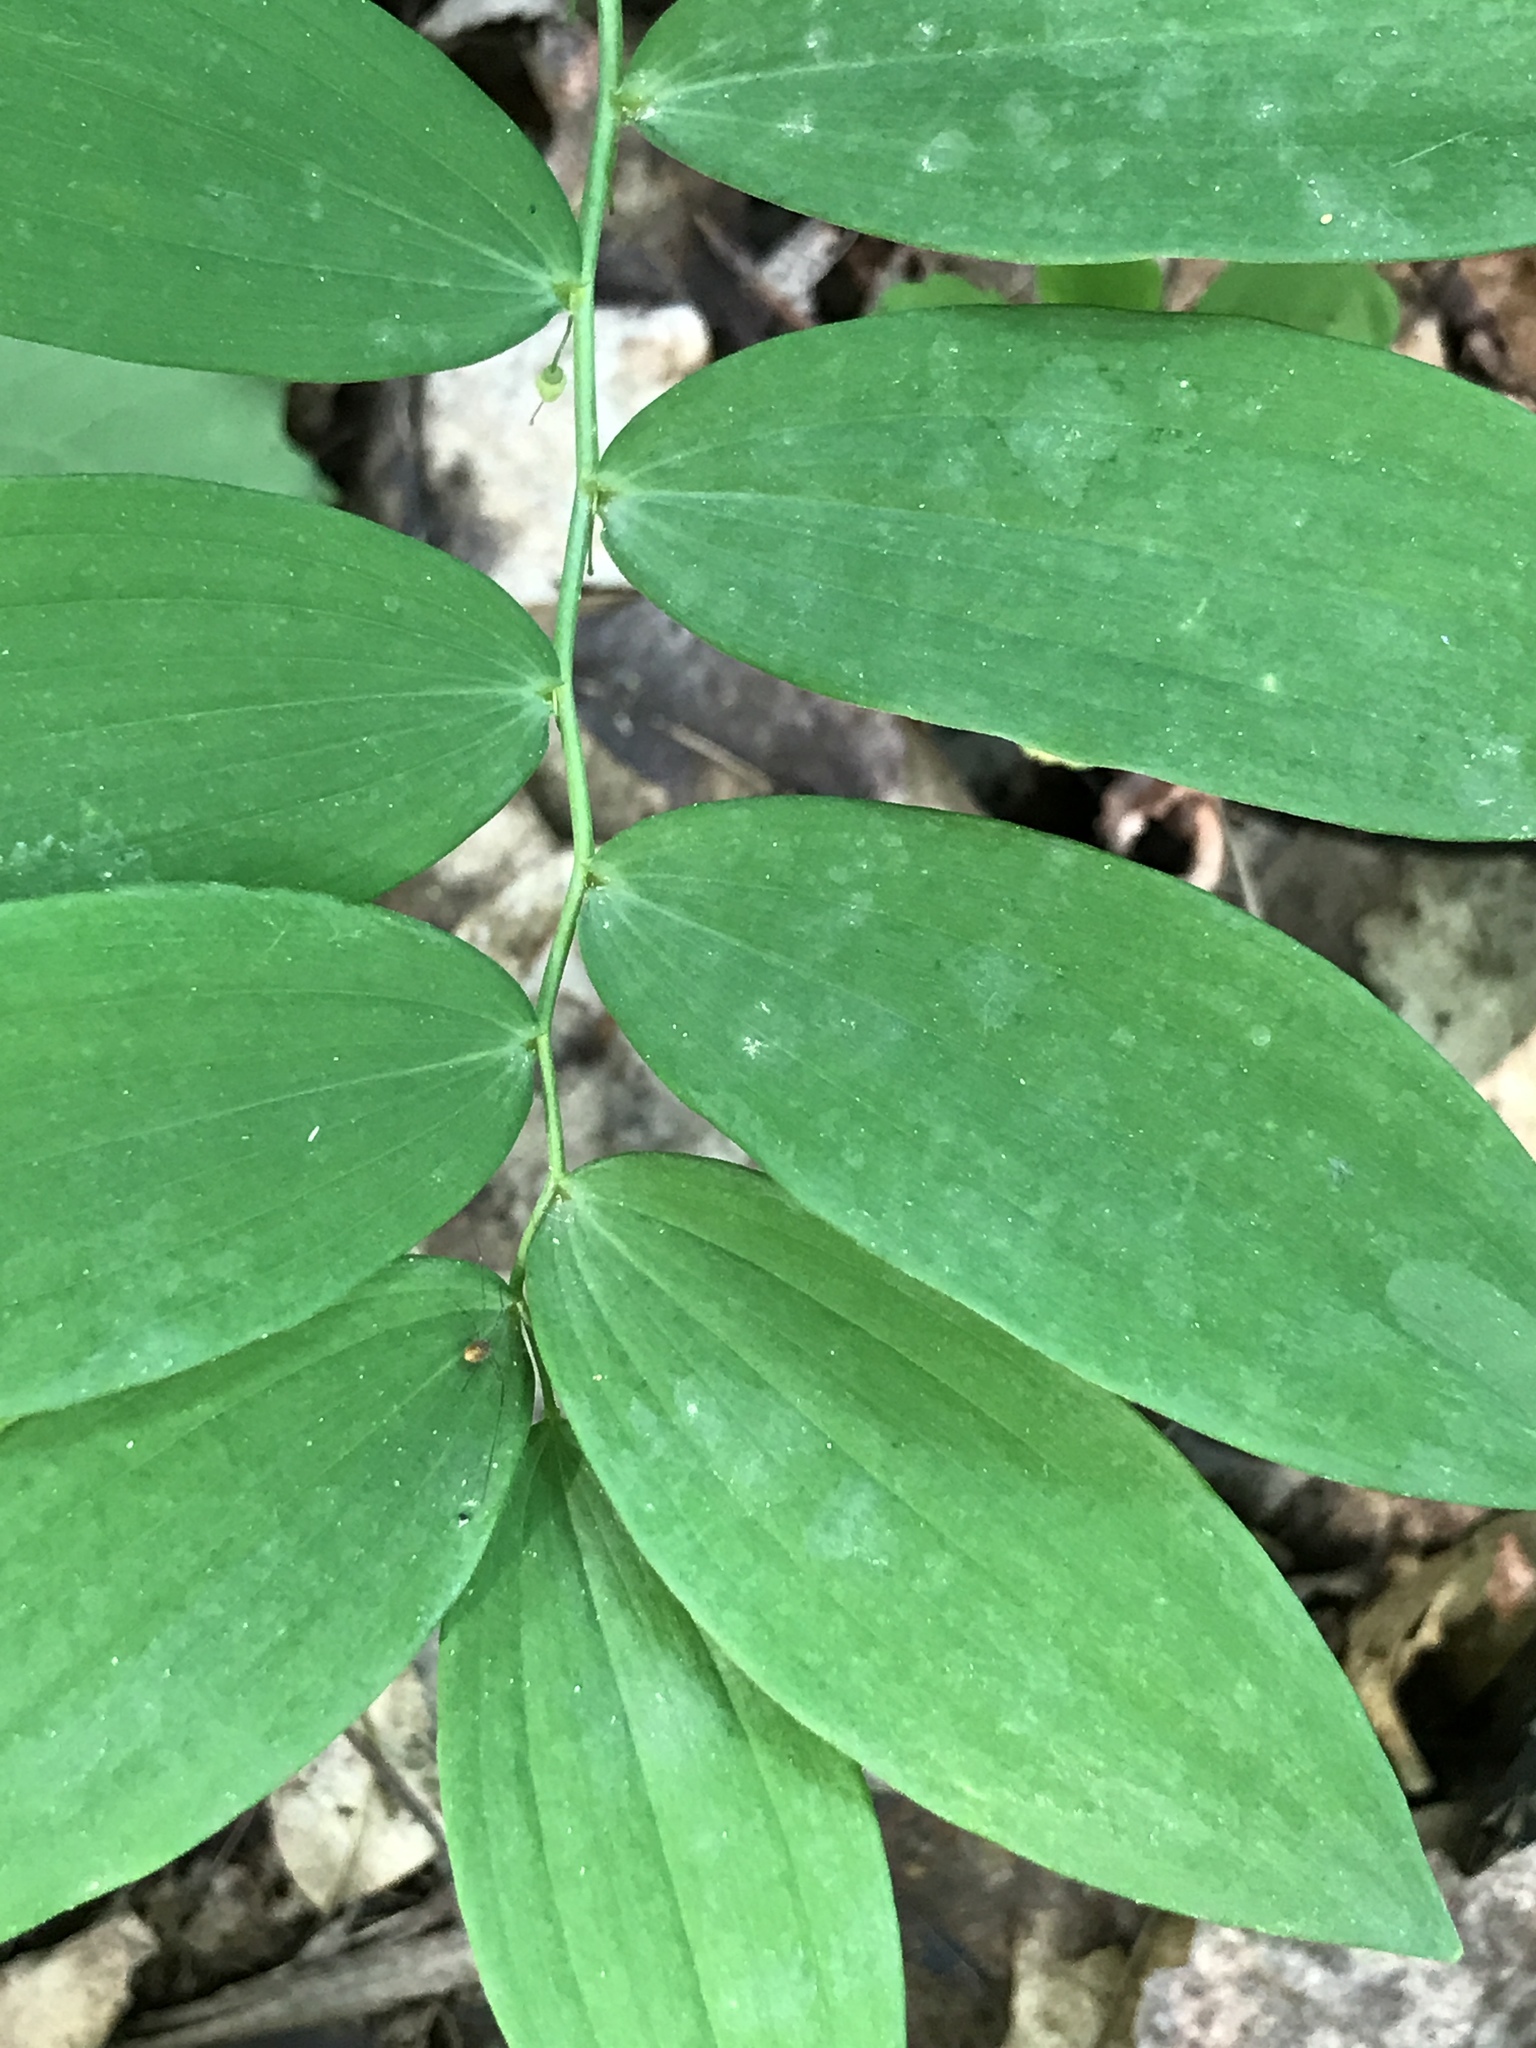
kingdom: Plantae
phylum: Tracheophyta
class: Liliopsida
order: Asparagales
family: Asparagaceae
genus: Polygonatum
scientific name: Polygonatum pubescens
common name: Downy solomon's seal
